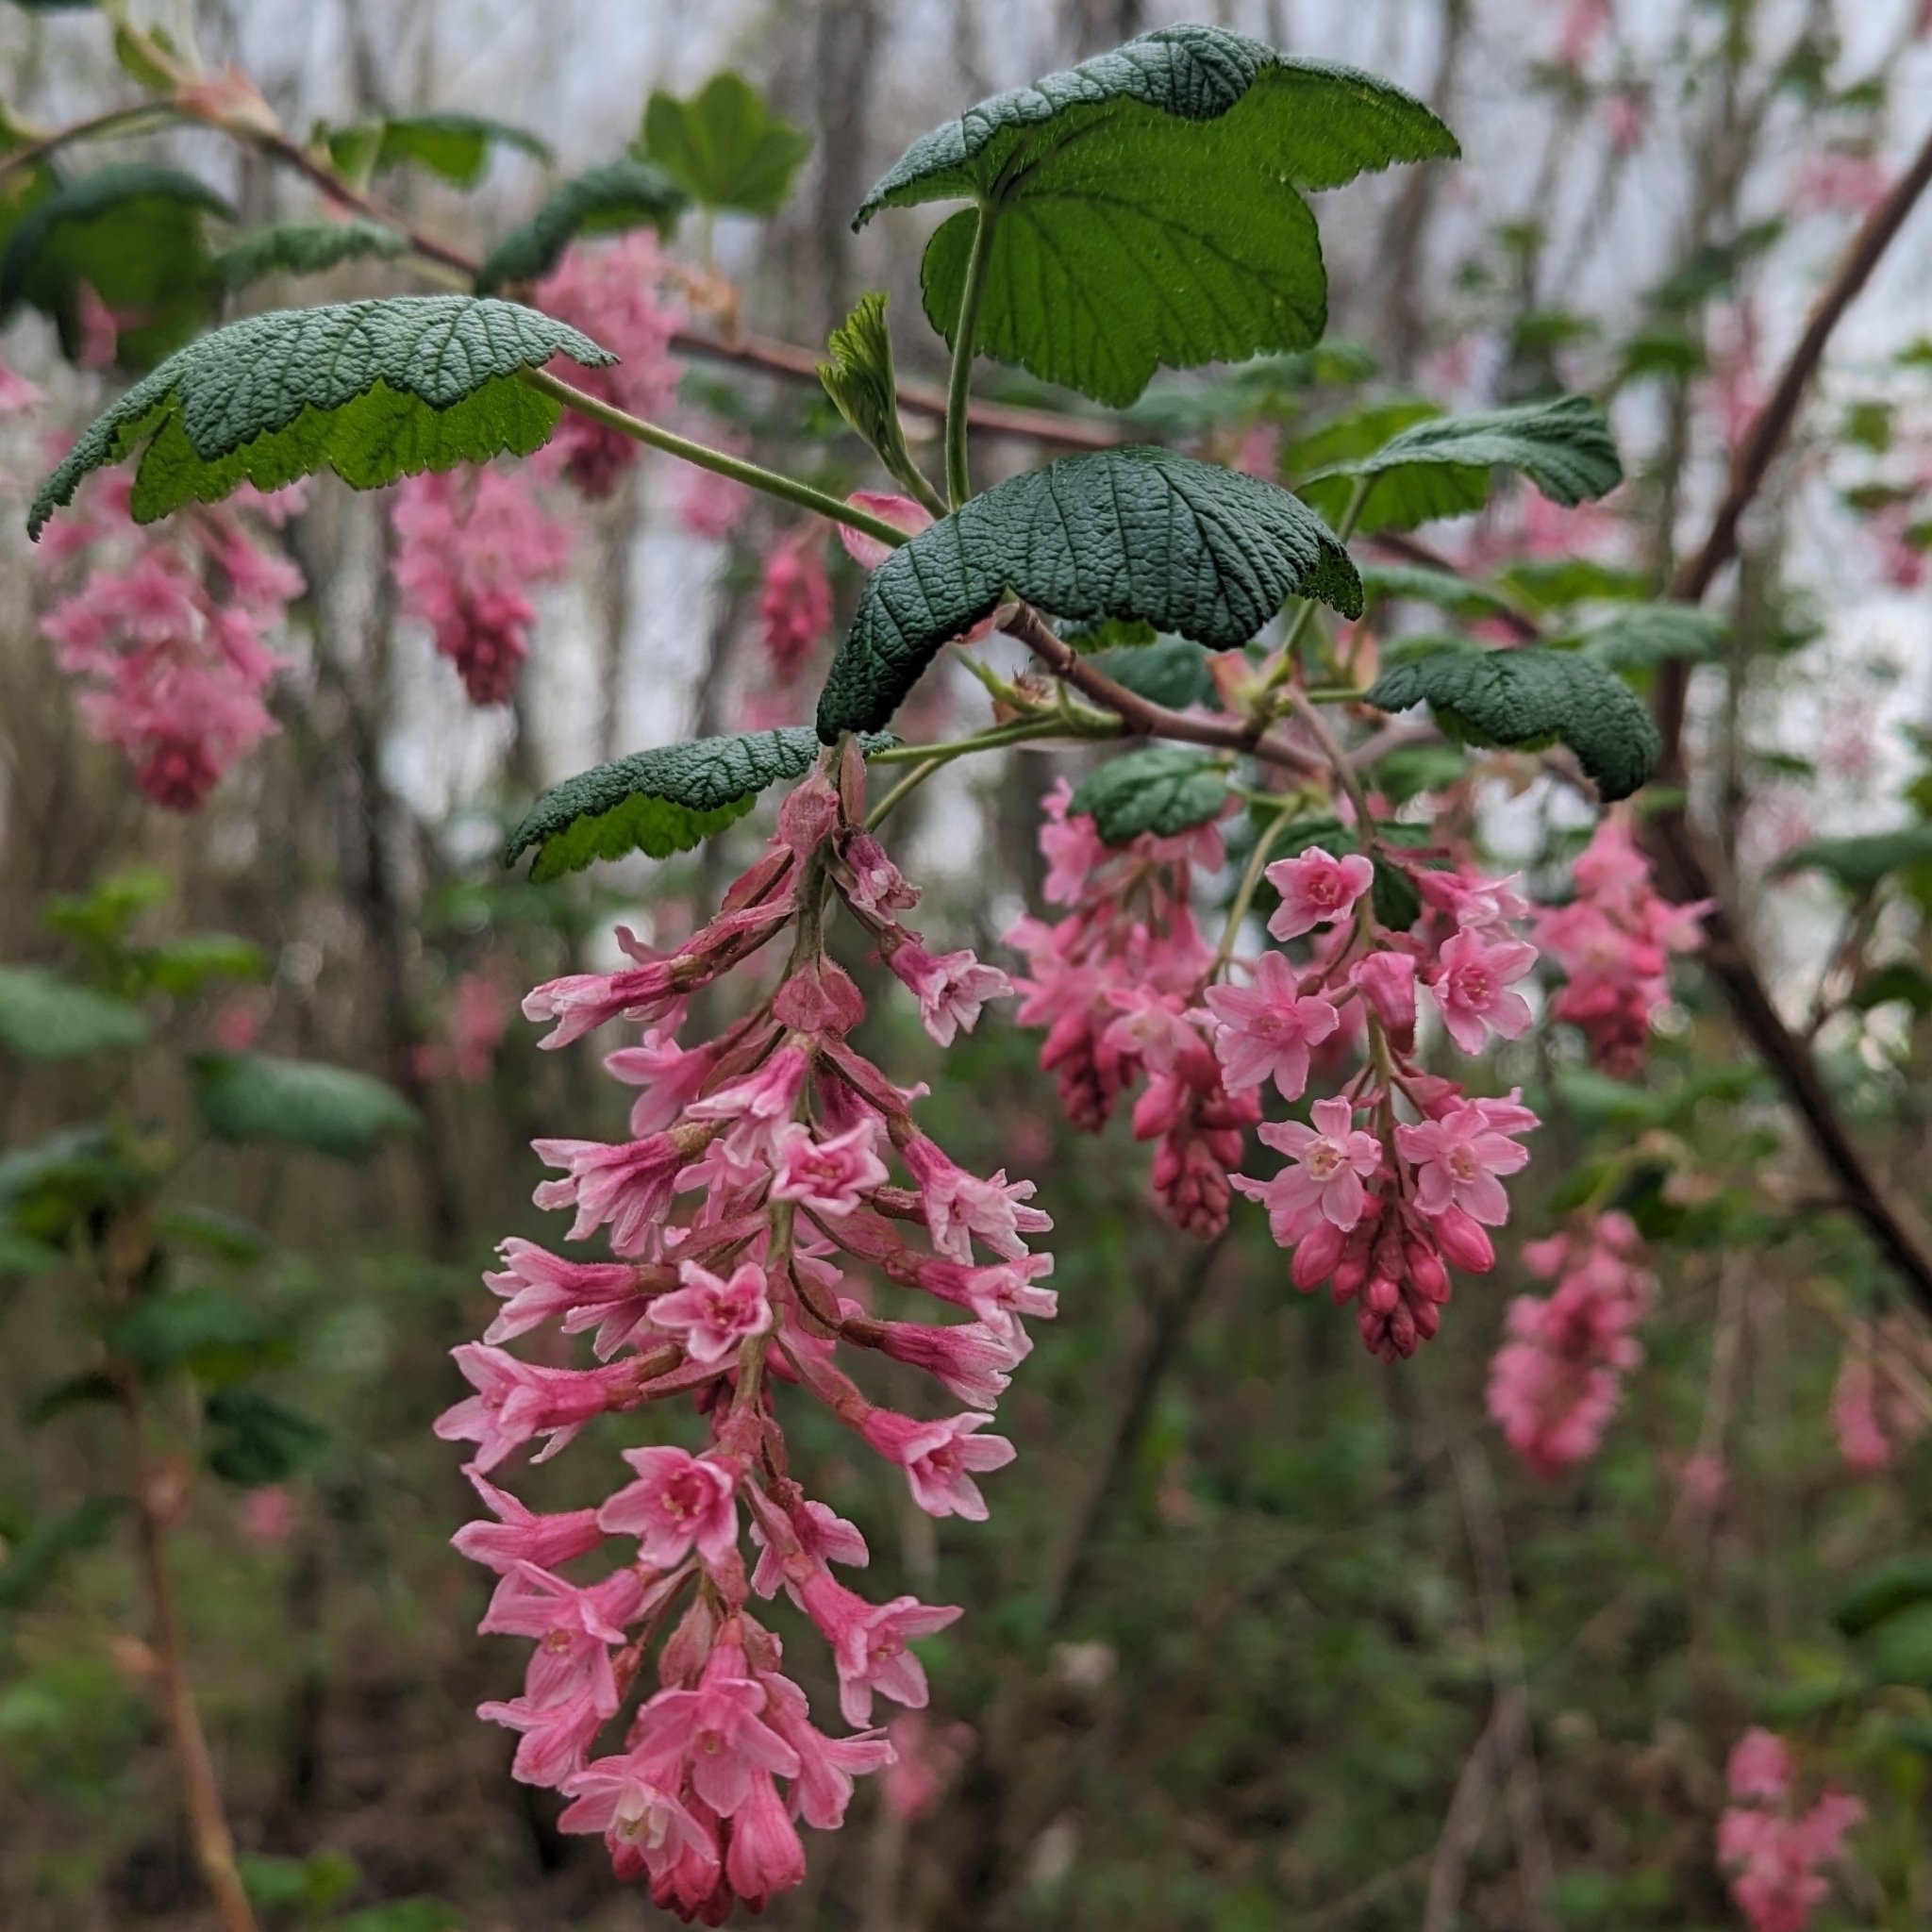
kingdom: Plantae
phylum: Tracheophyta
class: Magnoliopsida
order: Saxifragales
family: Grossulariaceae
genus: Ribes
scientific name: Ribes sanguineum
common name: Flowering currant
